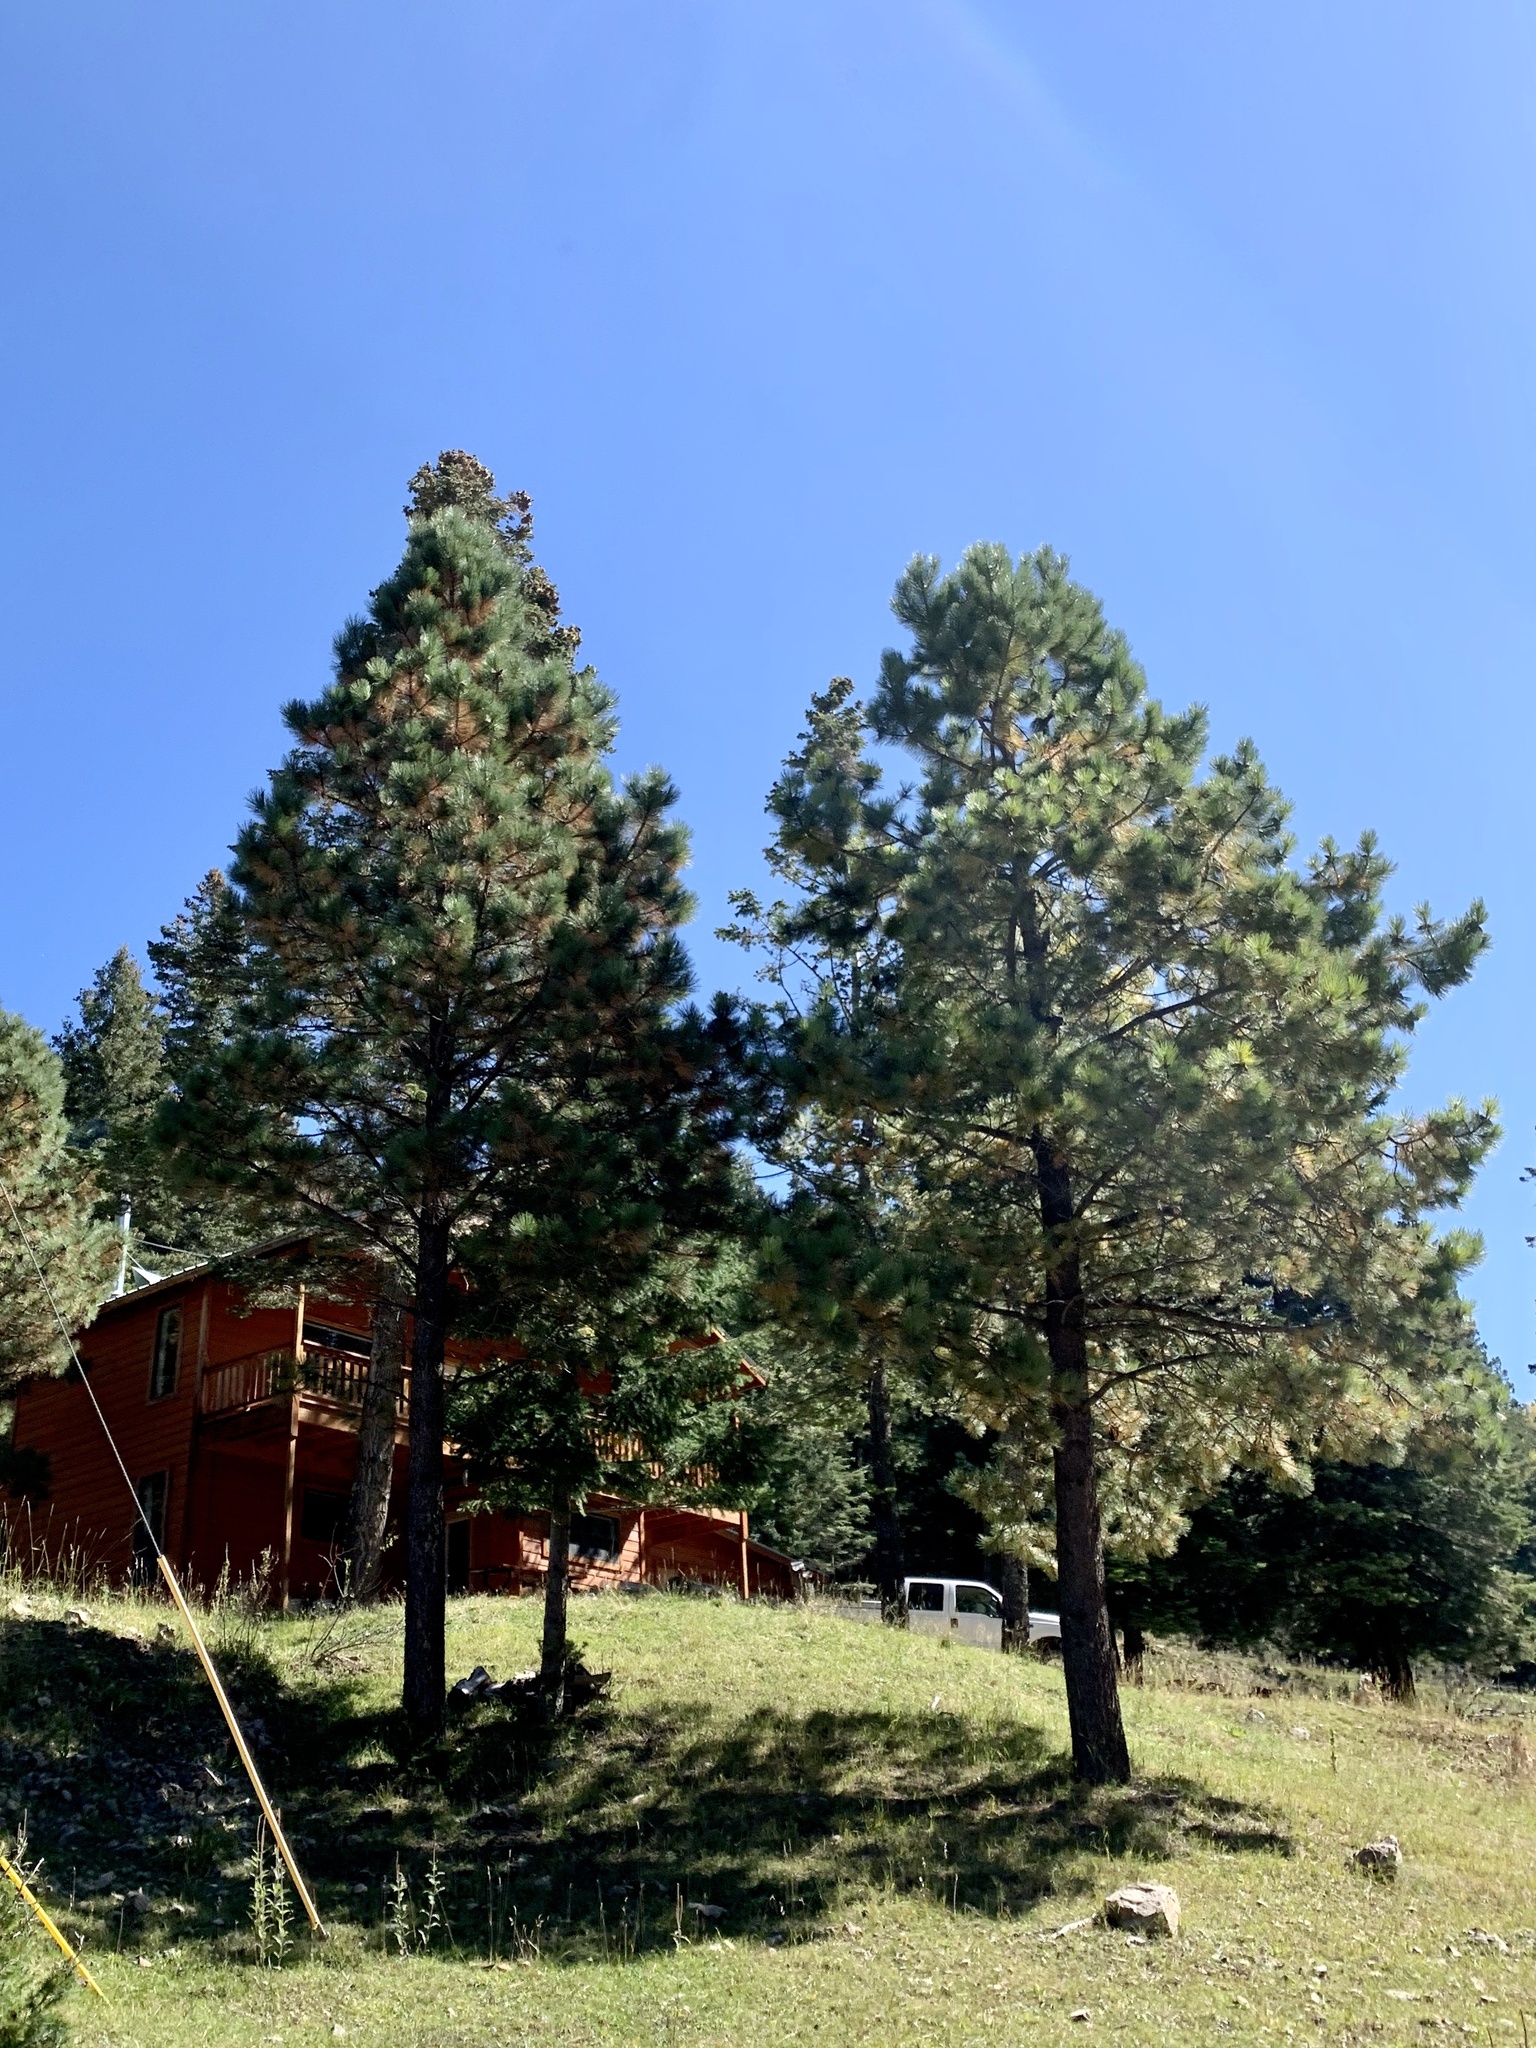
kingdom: Plantae
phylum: Tracheophyta
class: Pinopsida
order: Pinales
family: Pinaceae
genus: Pinus
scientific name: Pinus ponderosa
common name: Western yellow-pine
